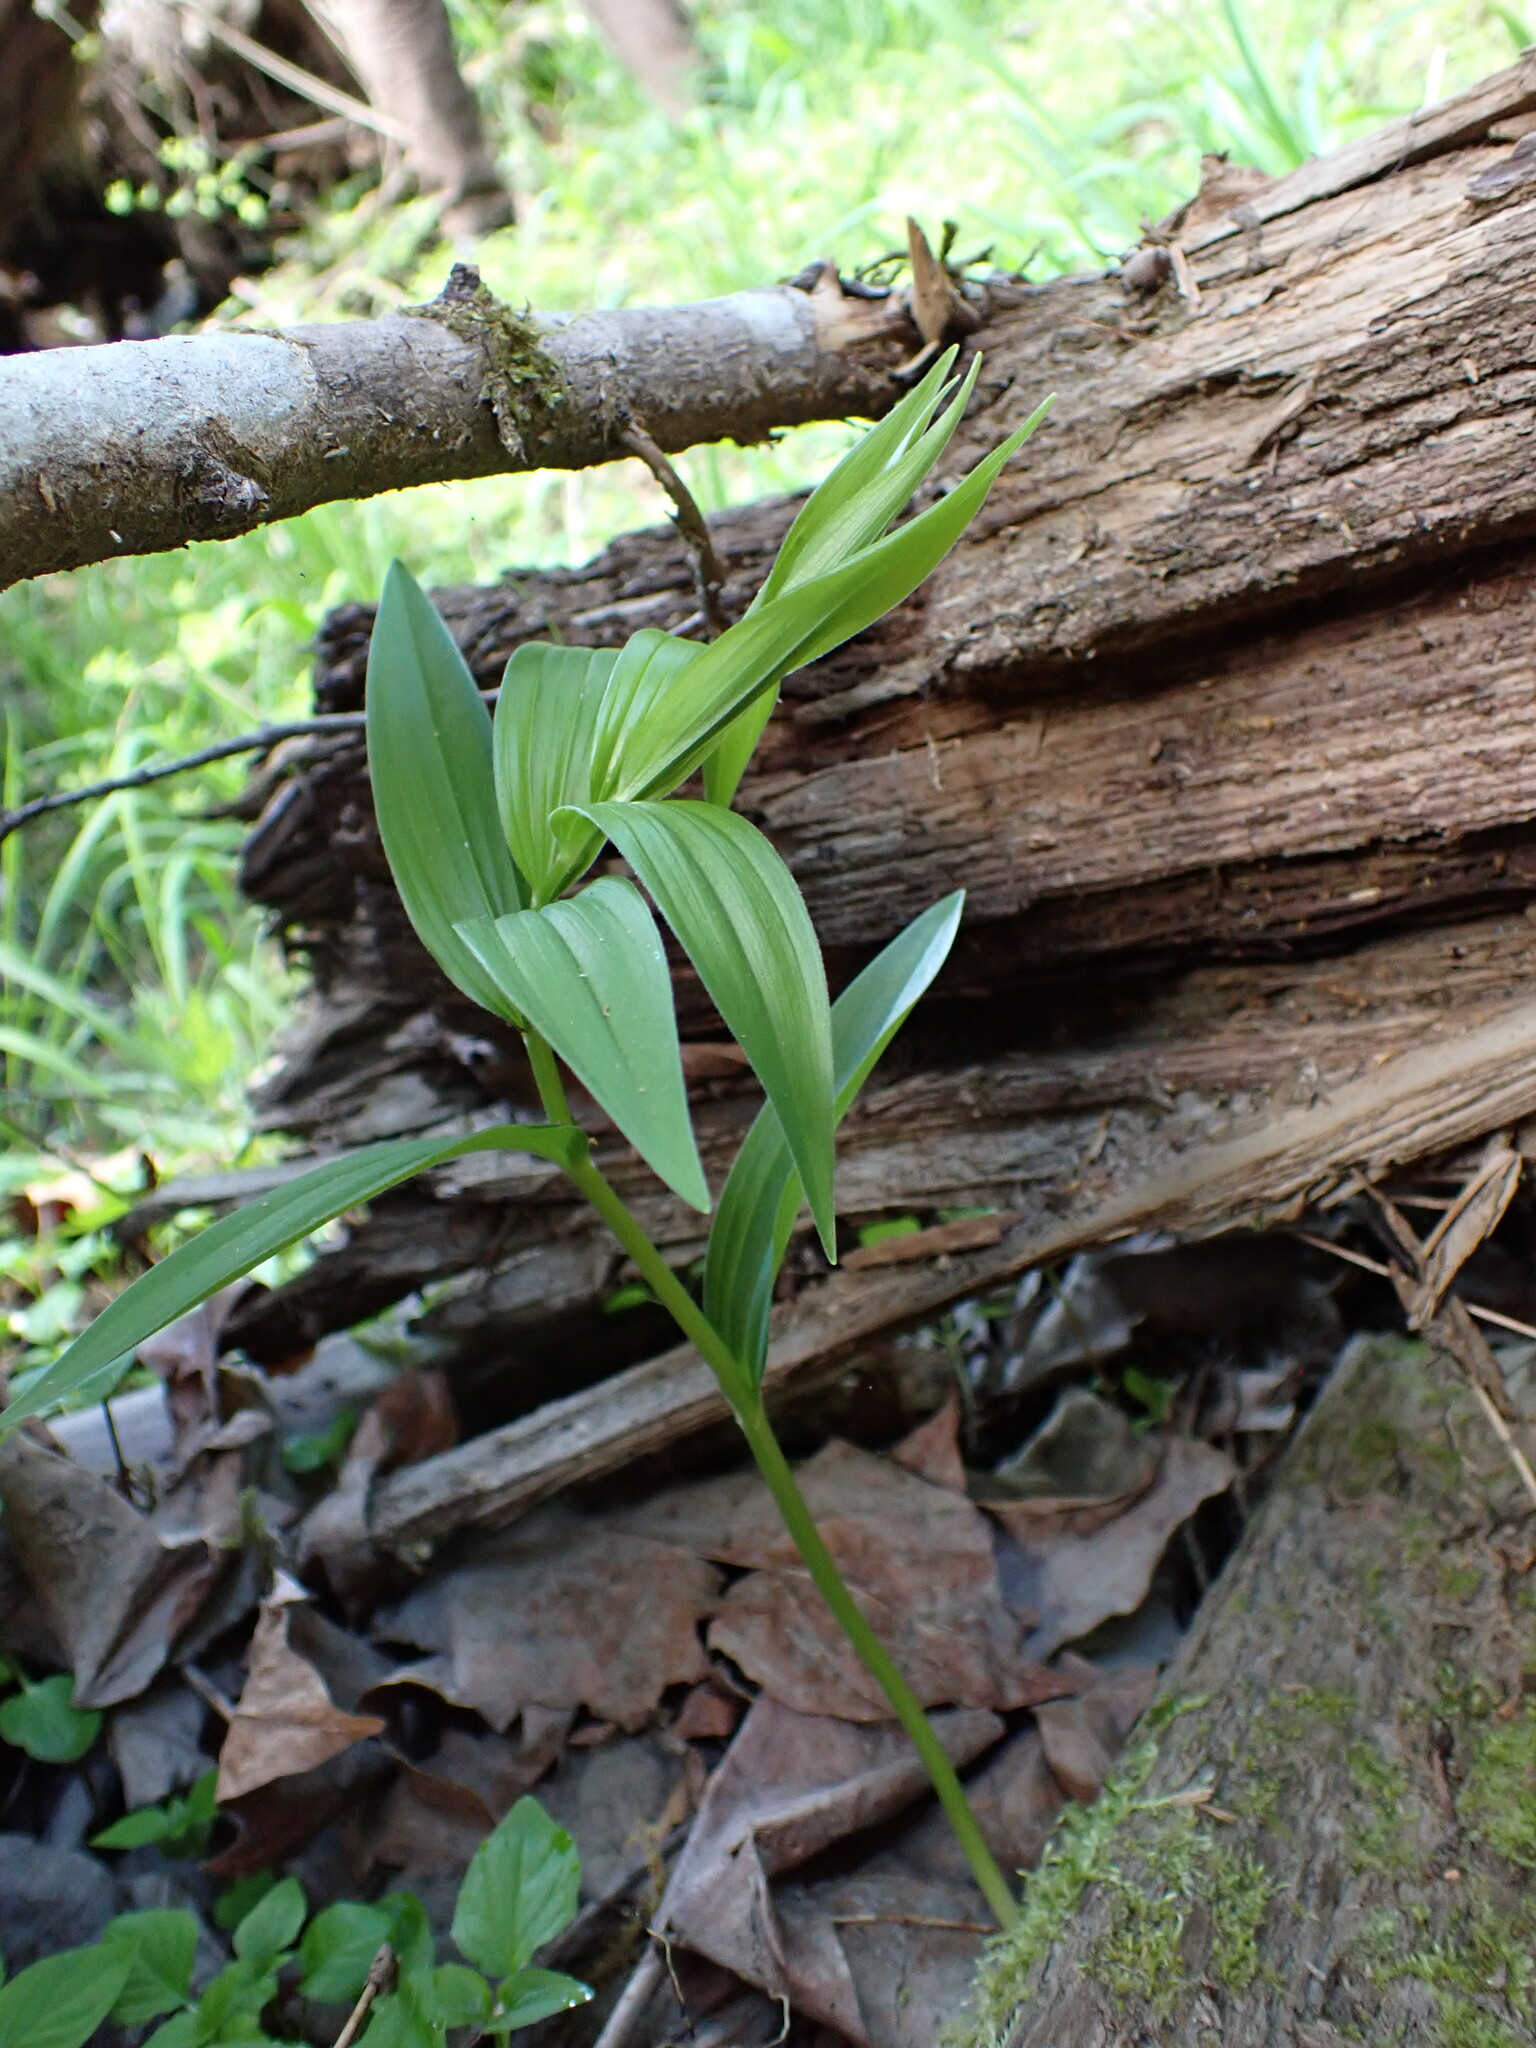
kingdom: Plantae
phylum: Tracheophyta
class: Liliopsida
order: Asparagales
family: Asparagaceae
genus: Maianthemum
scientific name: Maianthemum stellatum
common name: Little false solomon's seal
